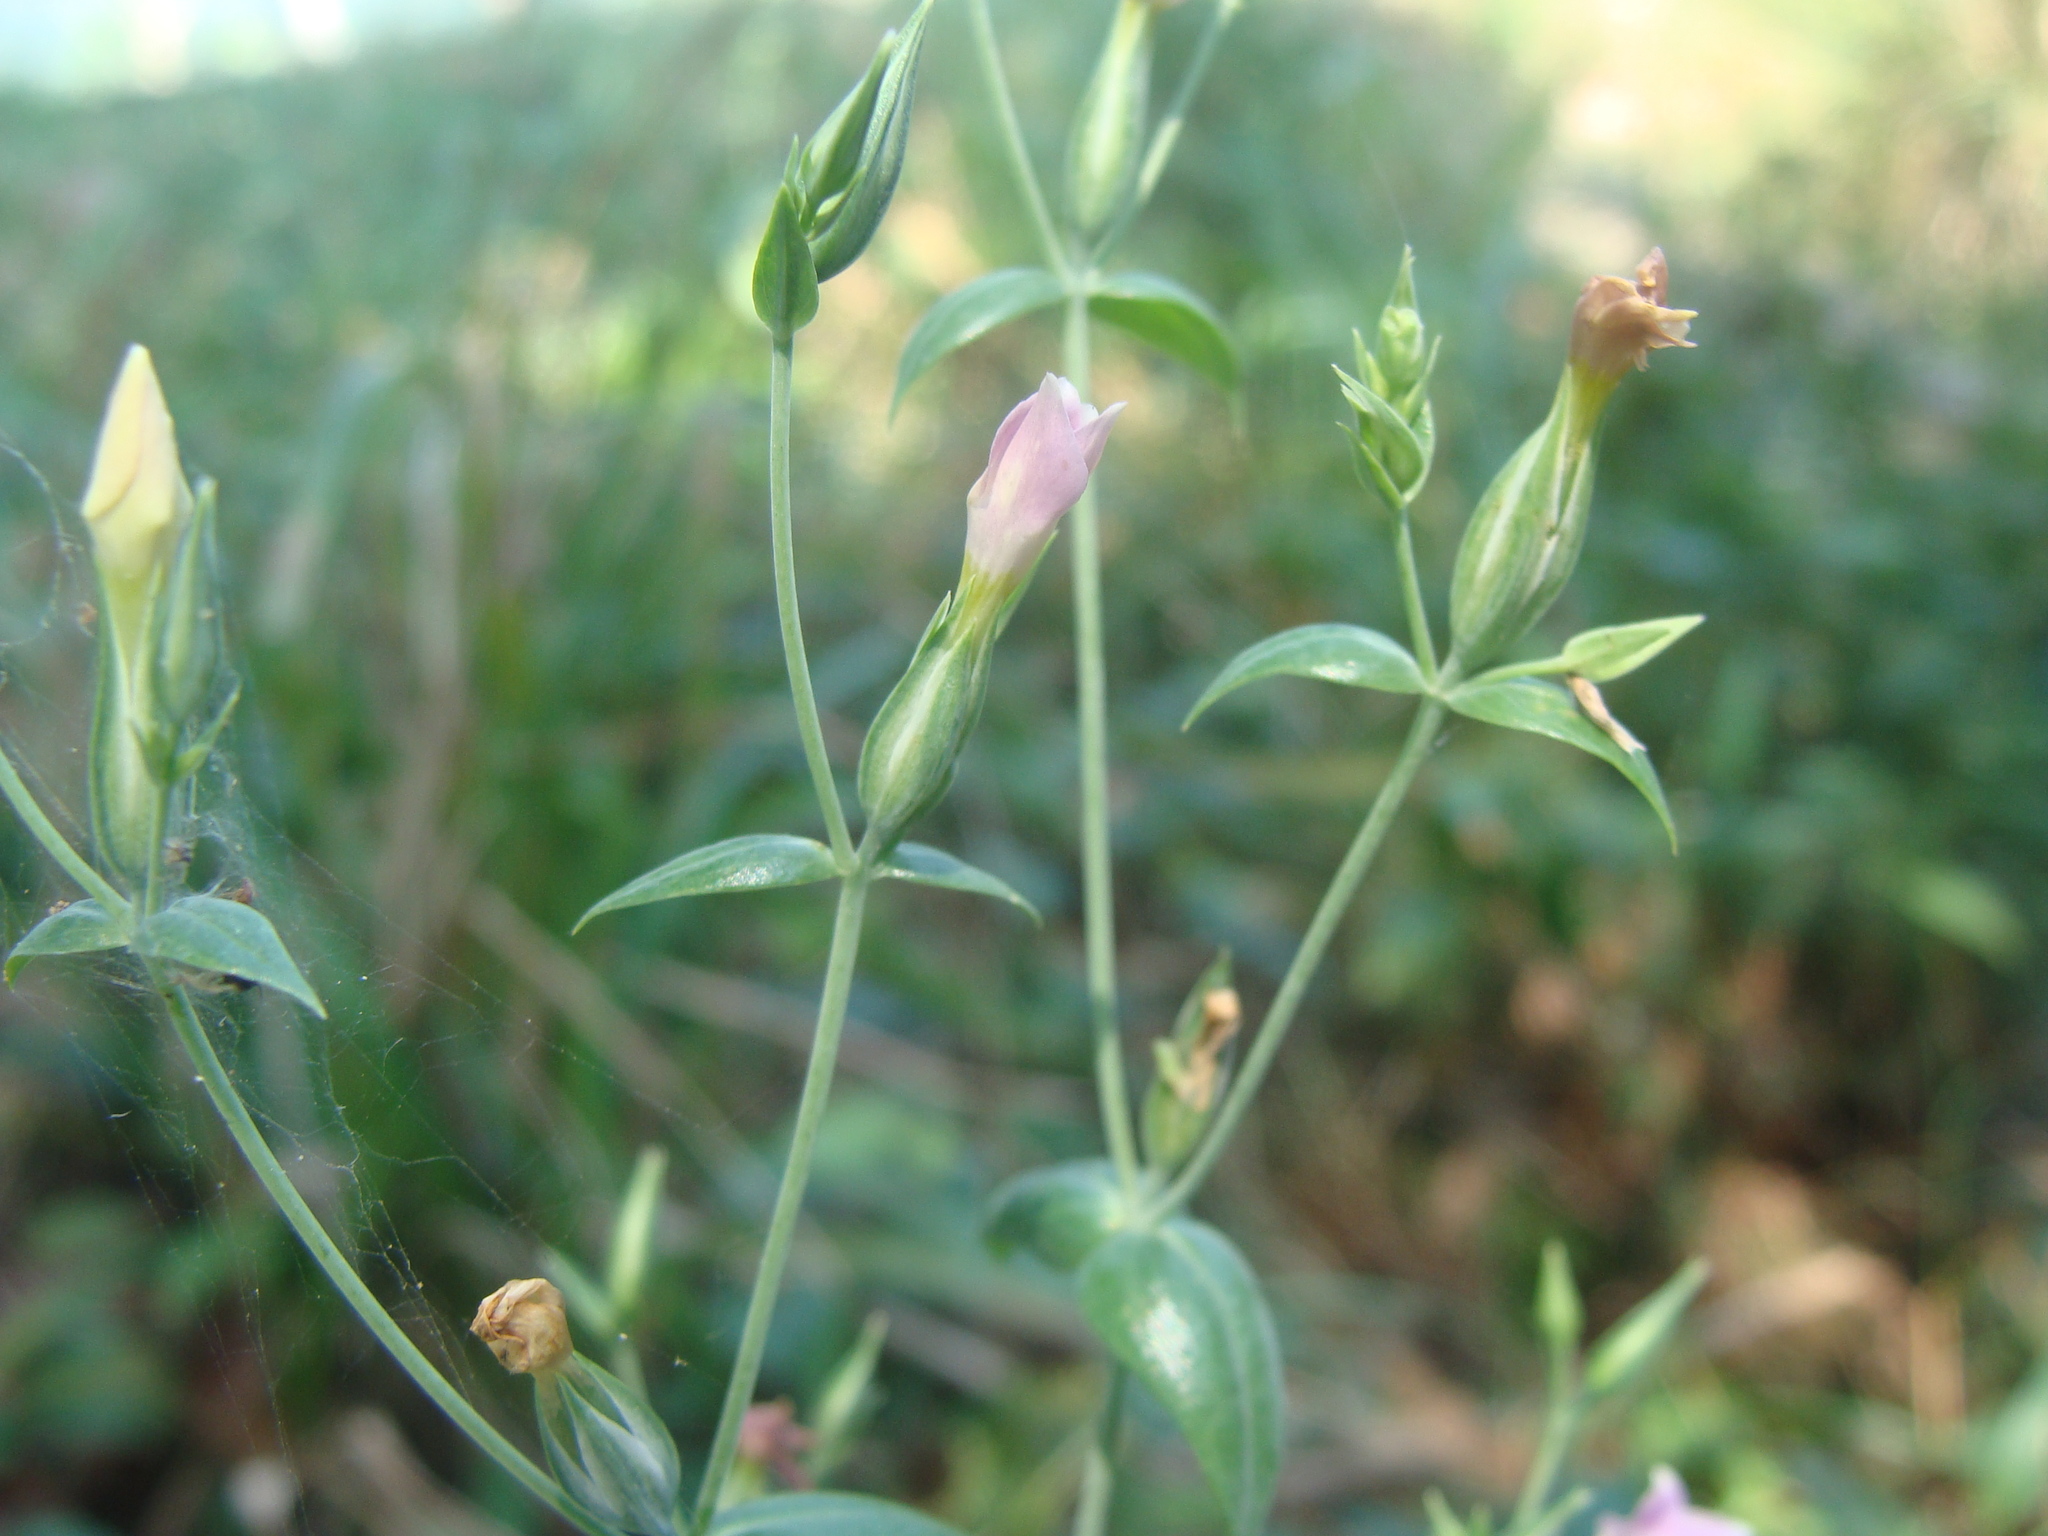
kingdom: Plantae
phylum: Tracheophyta
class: Magnoliopsida
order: Gentianales
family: Gentianaceae
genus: Schultesia
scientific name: Schultesia lisianthoides
